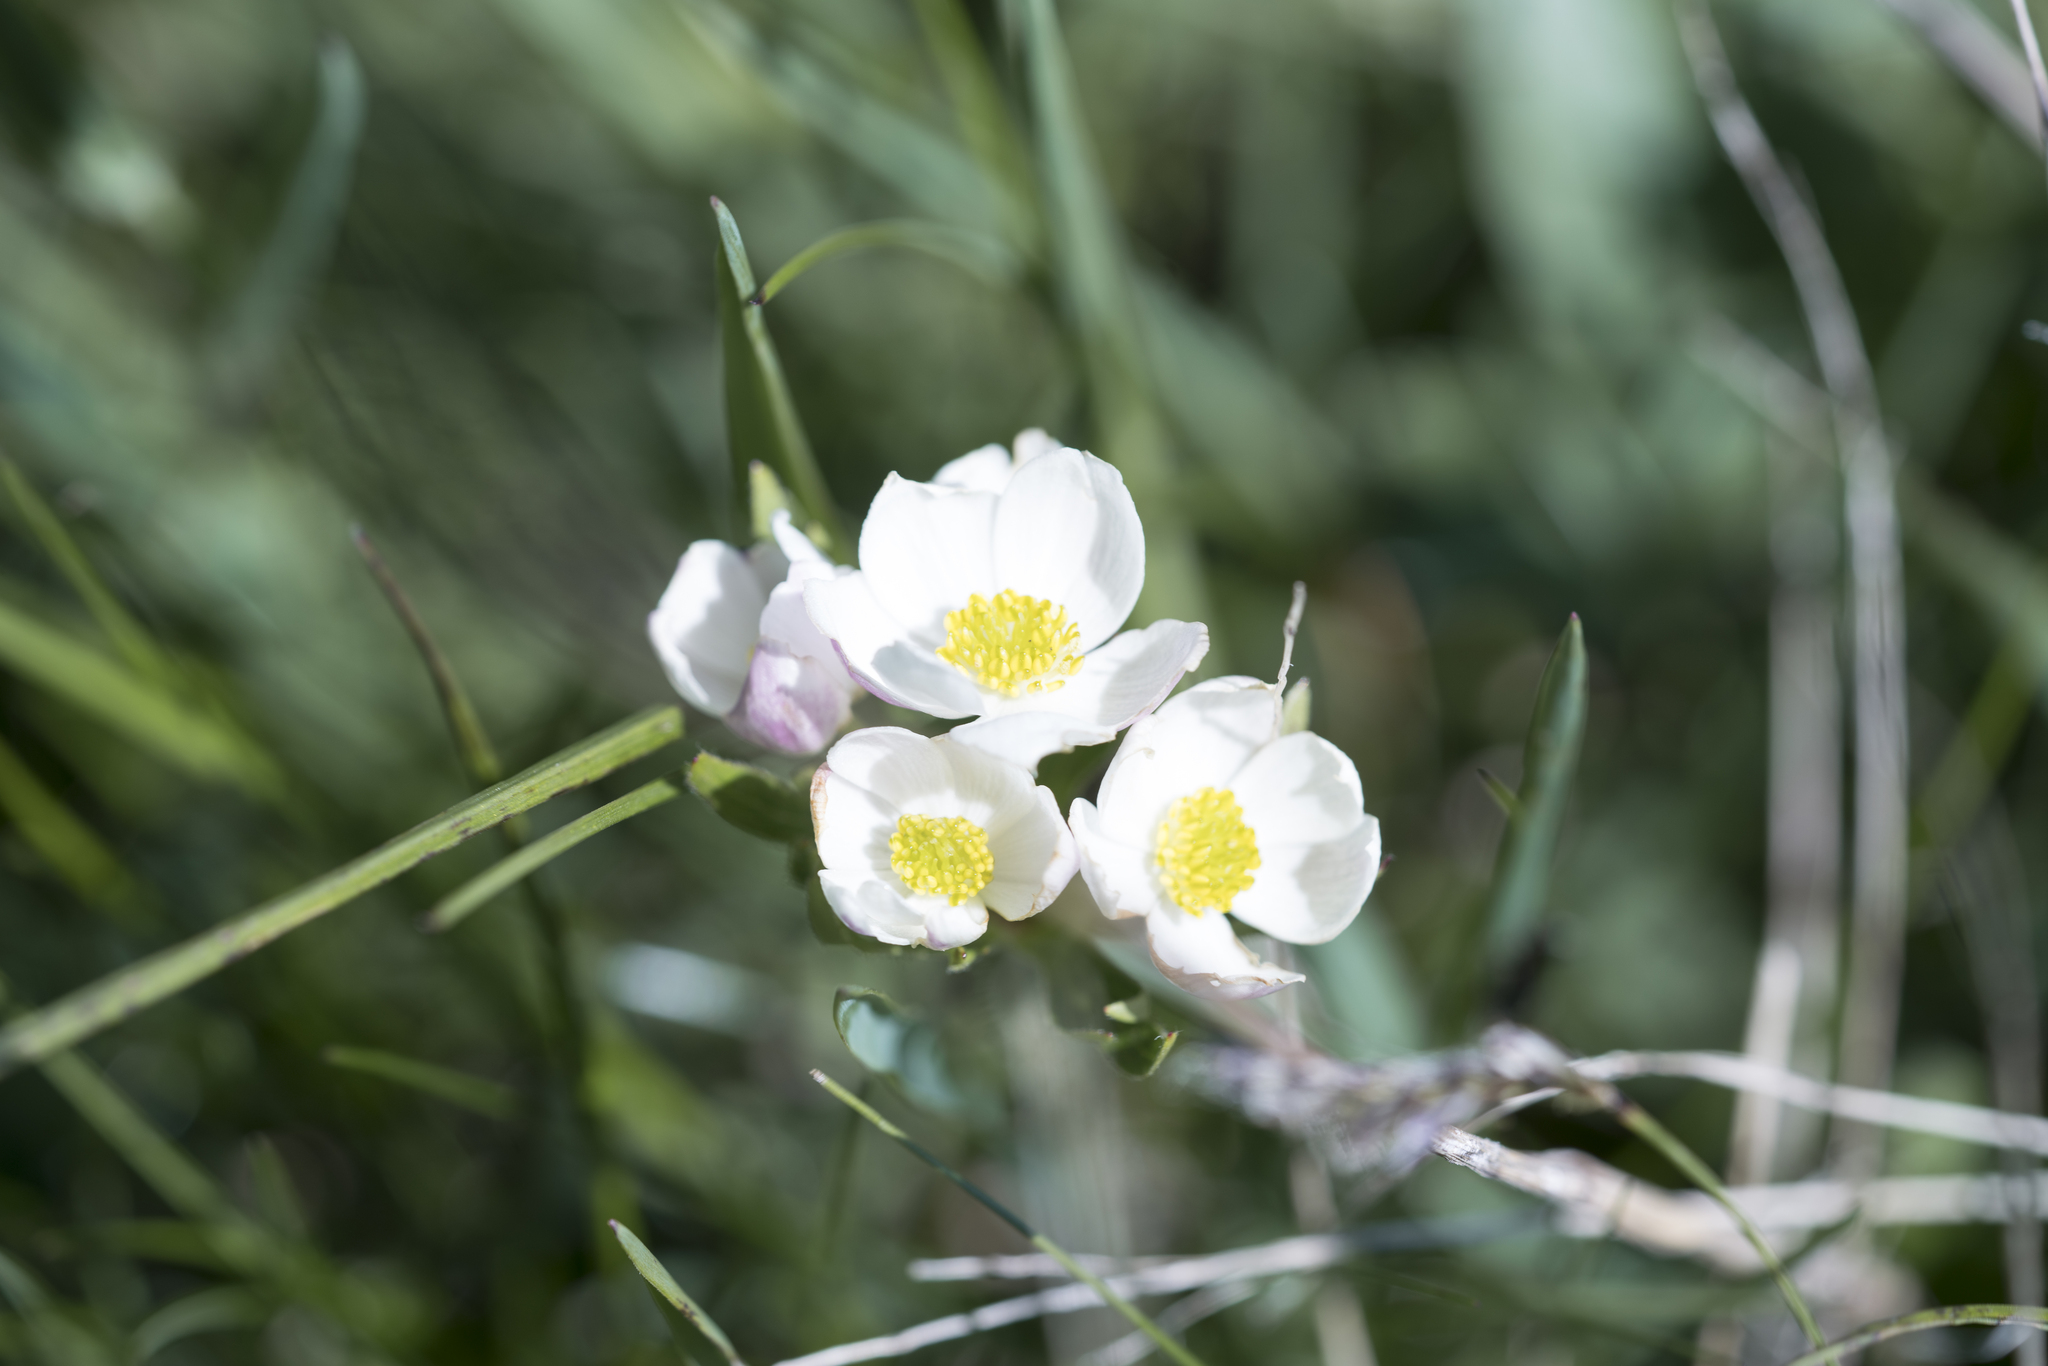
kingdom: Plantae
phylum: Tracheophyta
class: Magnoliopsida
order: Ranunculales
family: Ranunculaceae
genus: Anemonastrum
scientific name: Anemonastrum narcissiflorum
